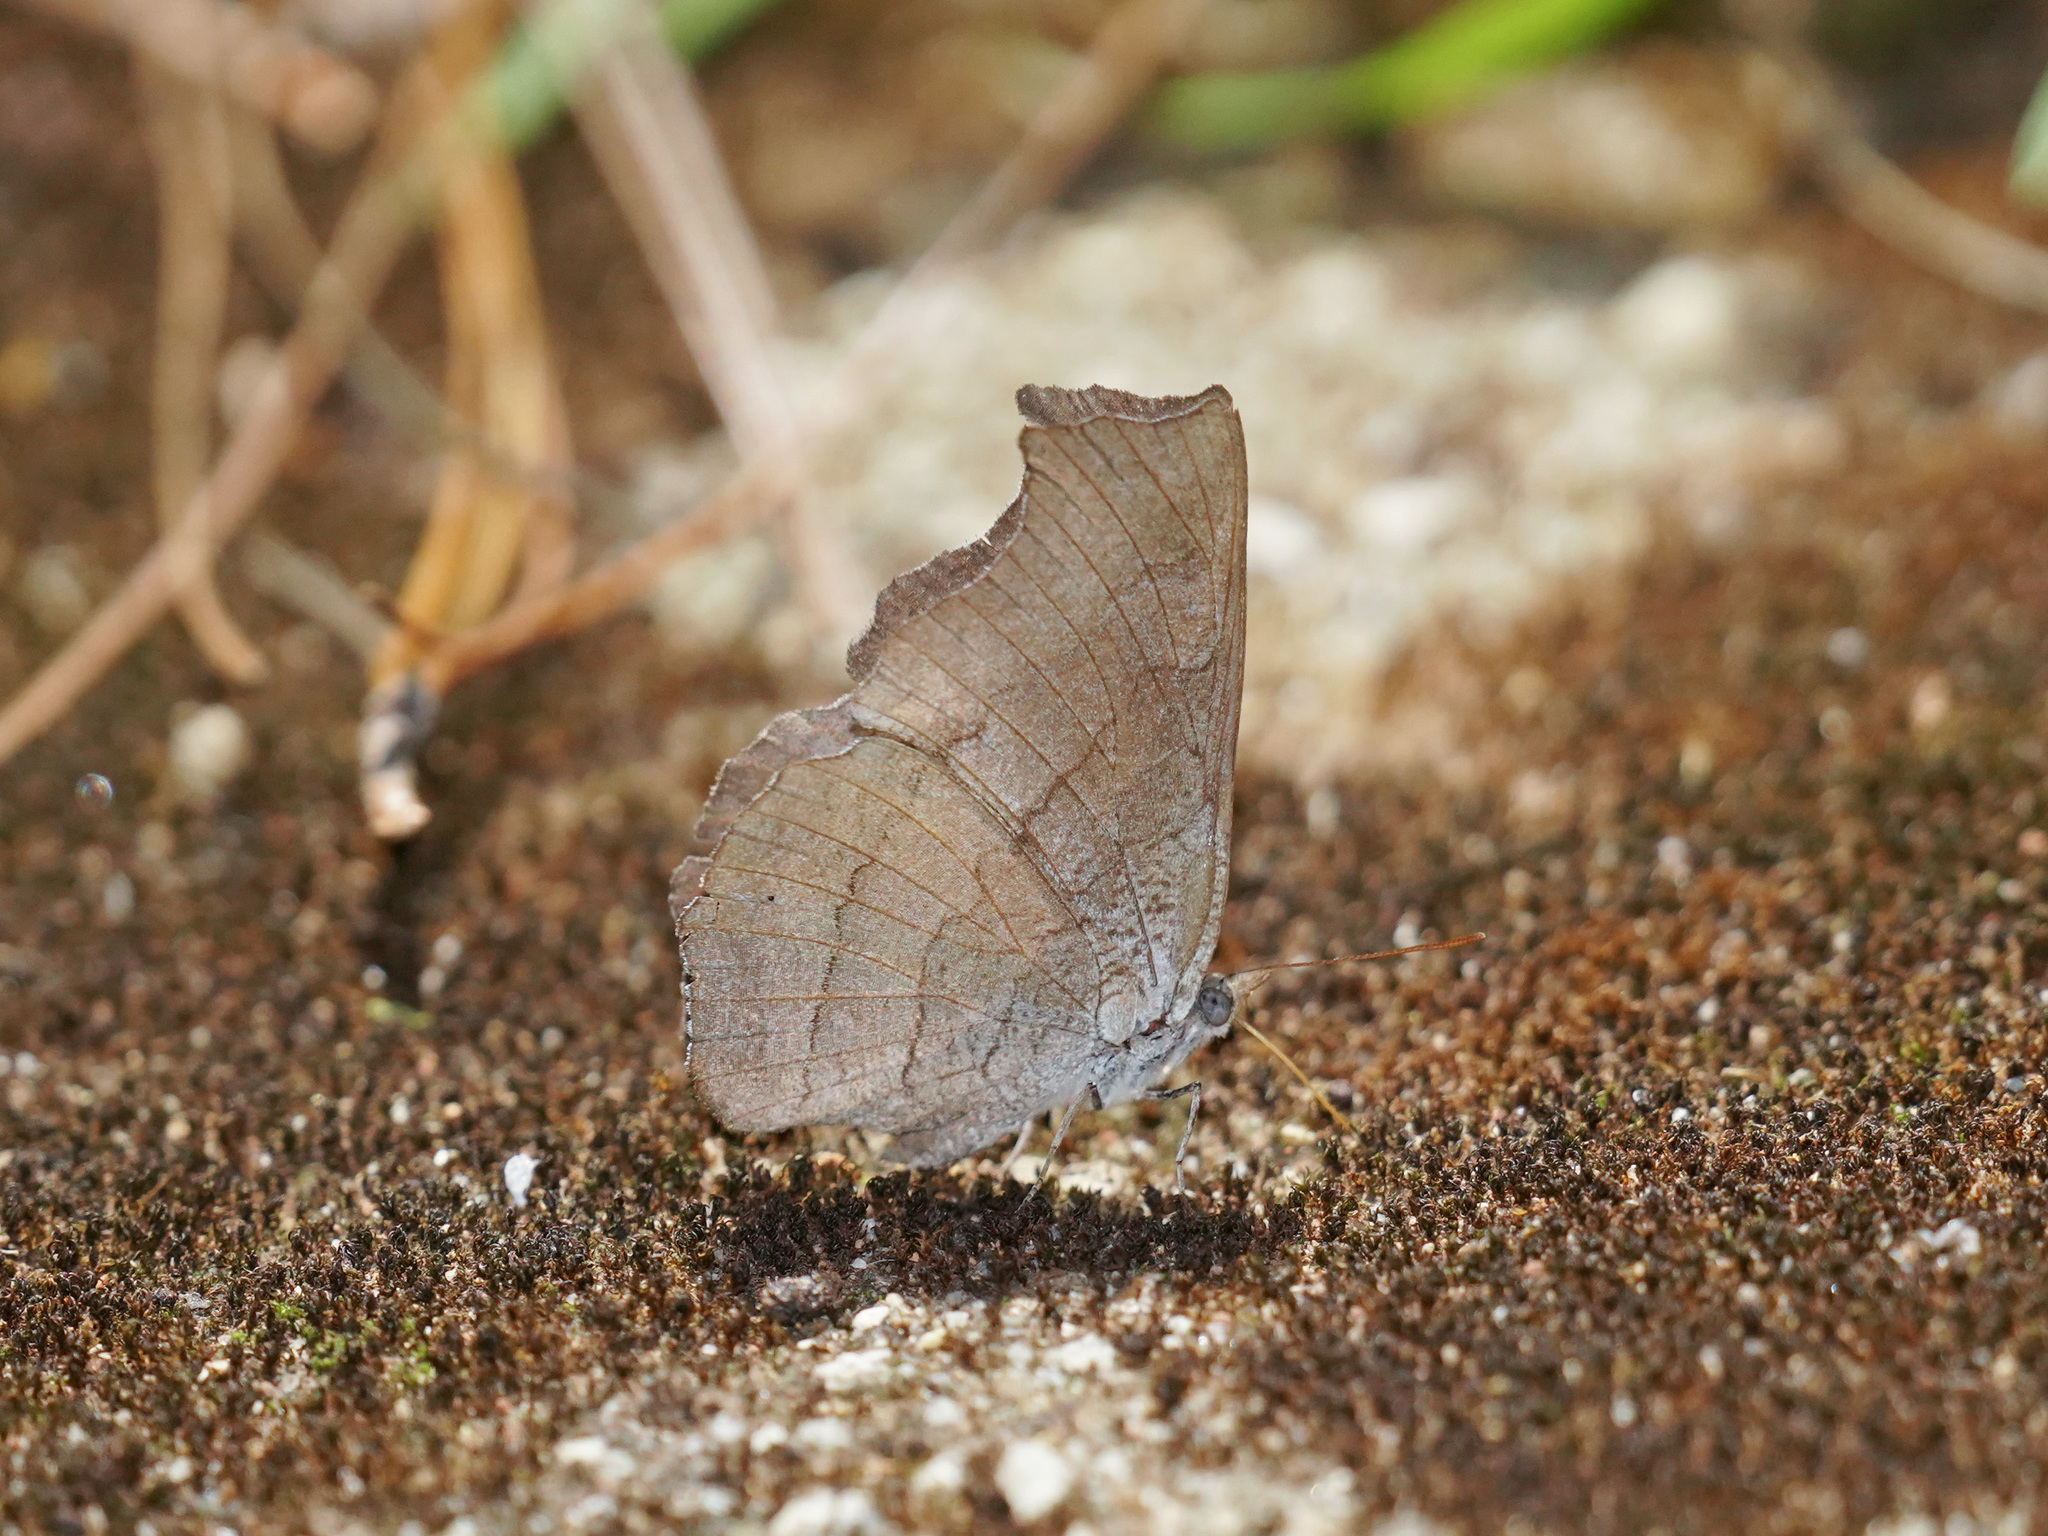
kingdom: Animalia
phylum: Arthropoda
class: Insecta
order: Lepidoptera
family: Nymphalidae
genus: Laringa
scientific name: Laringa horsfieldii
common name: Banded dandy
